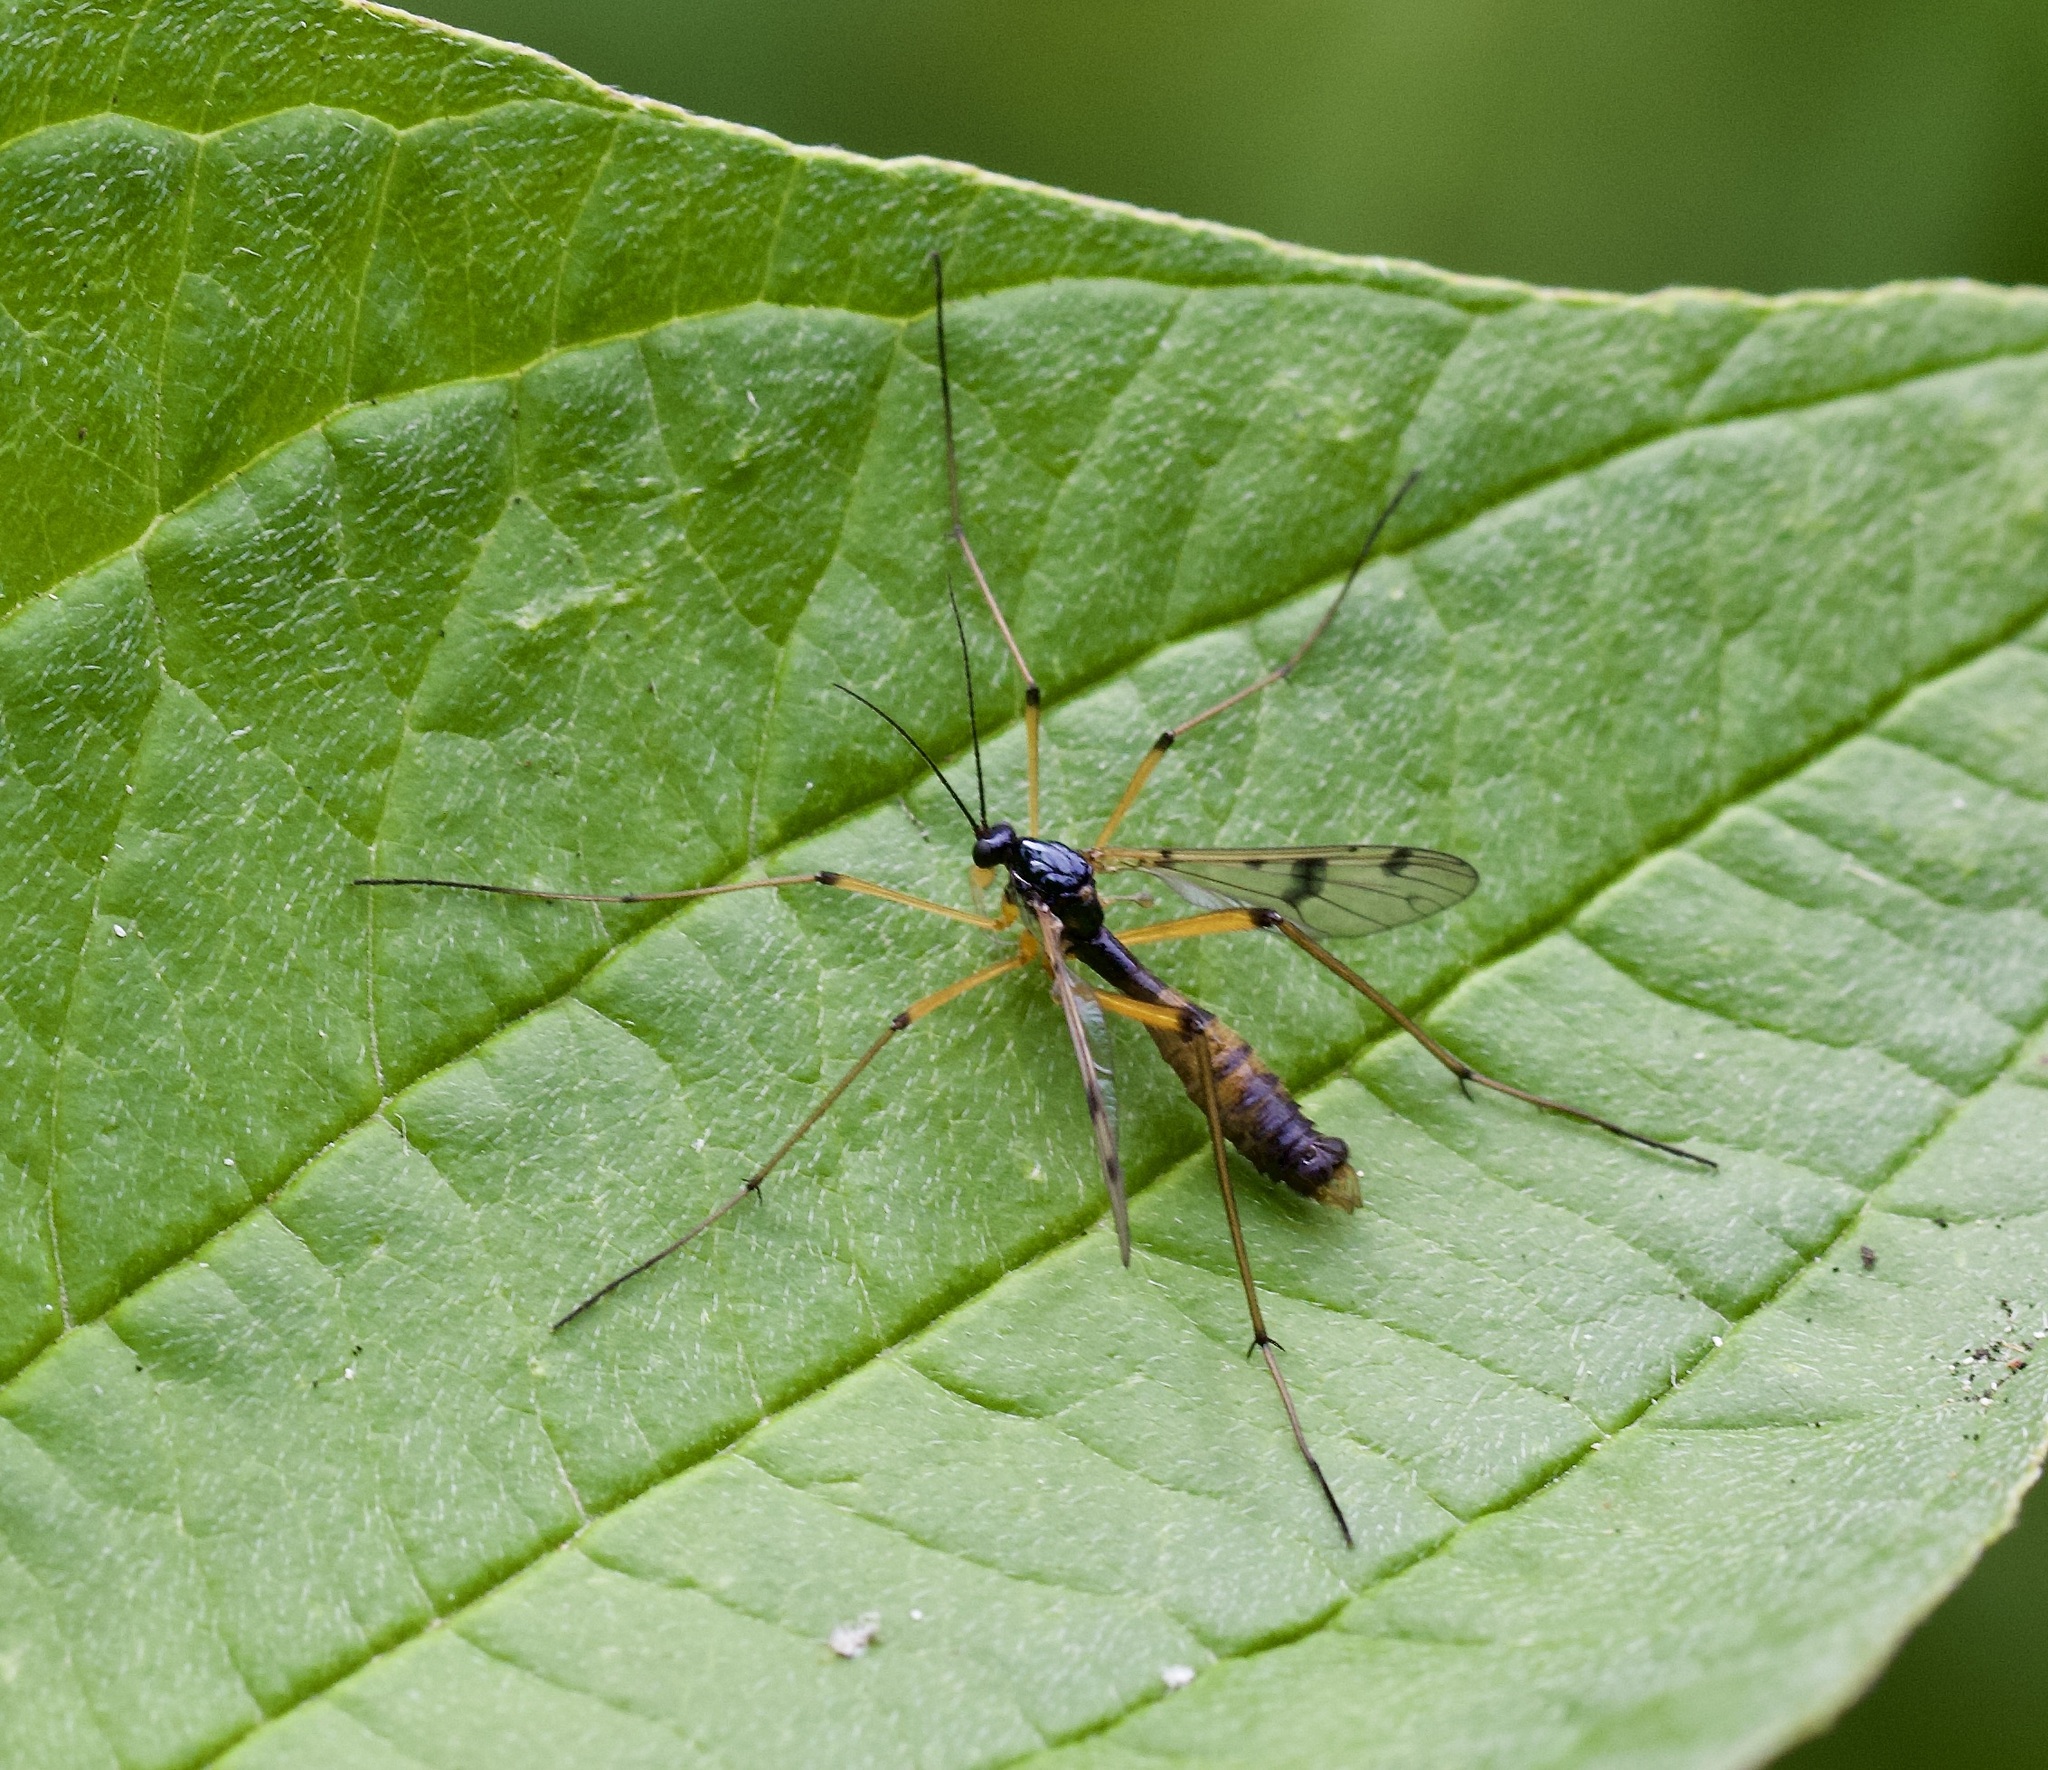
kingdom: Animalia
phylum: Arthropoda
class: Insecta
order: Diptera
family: Ptychopteridae
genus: Ptychoptera
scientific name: Ptychoptera contaminata
